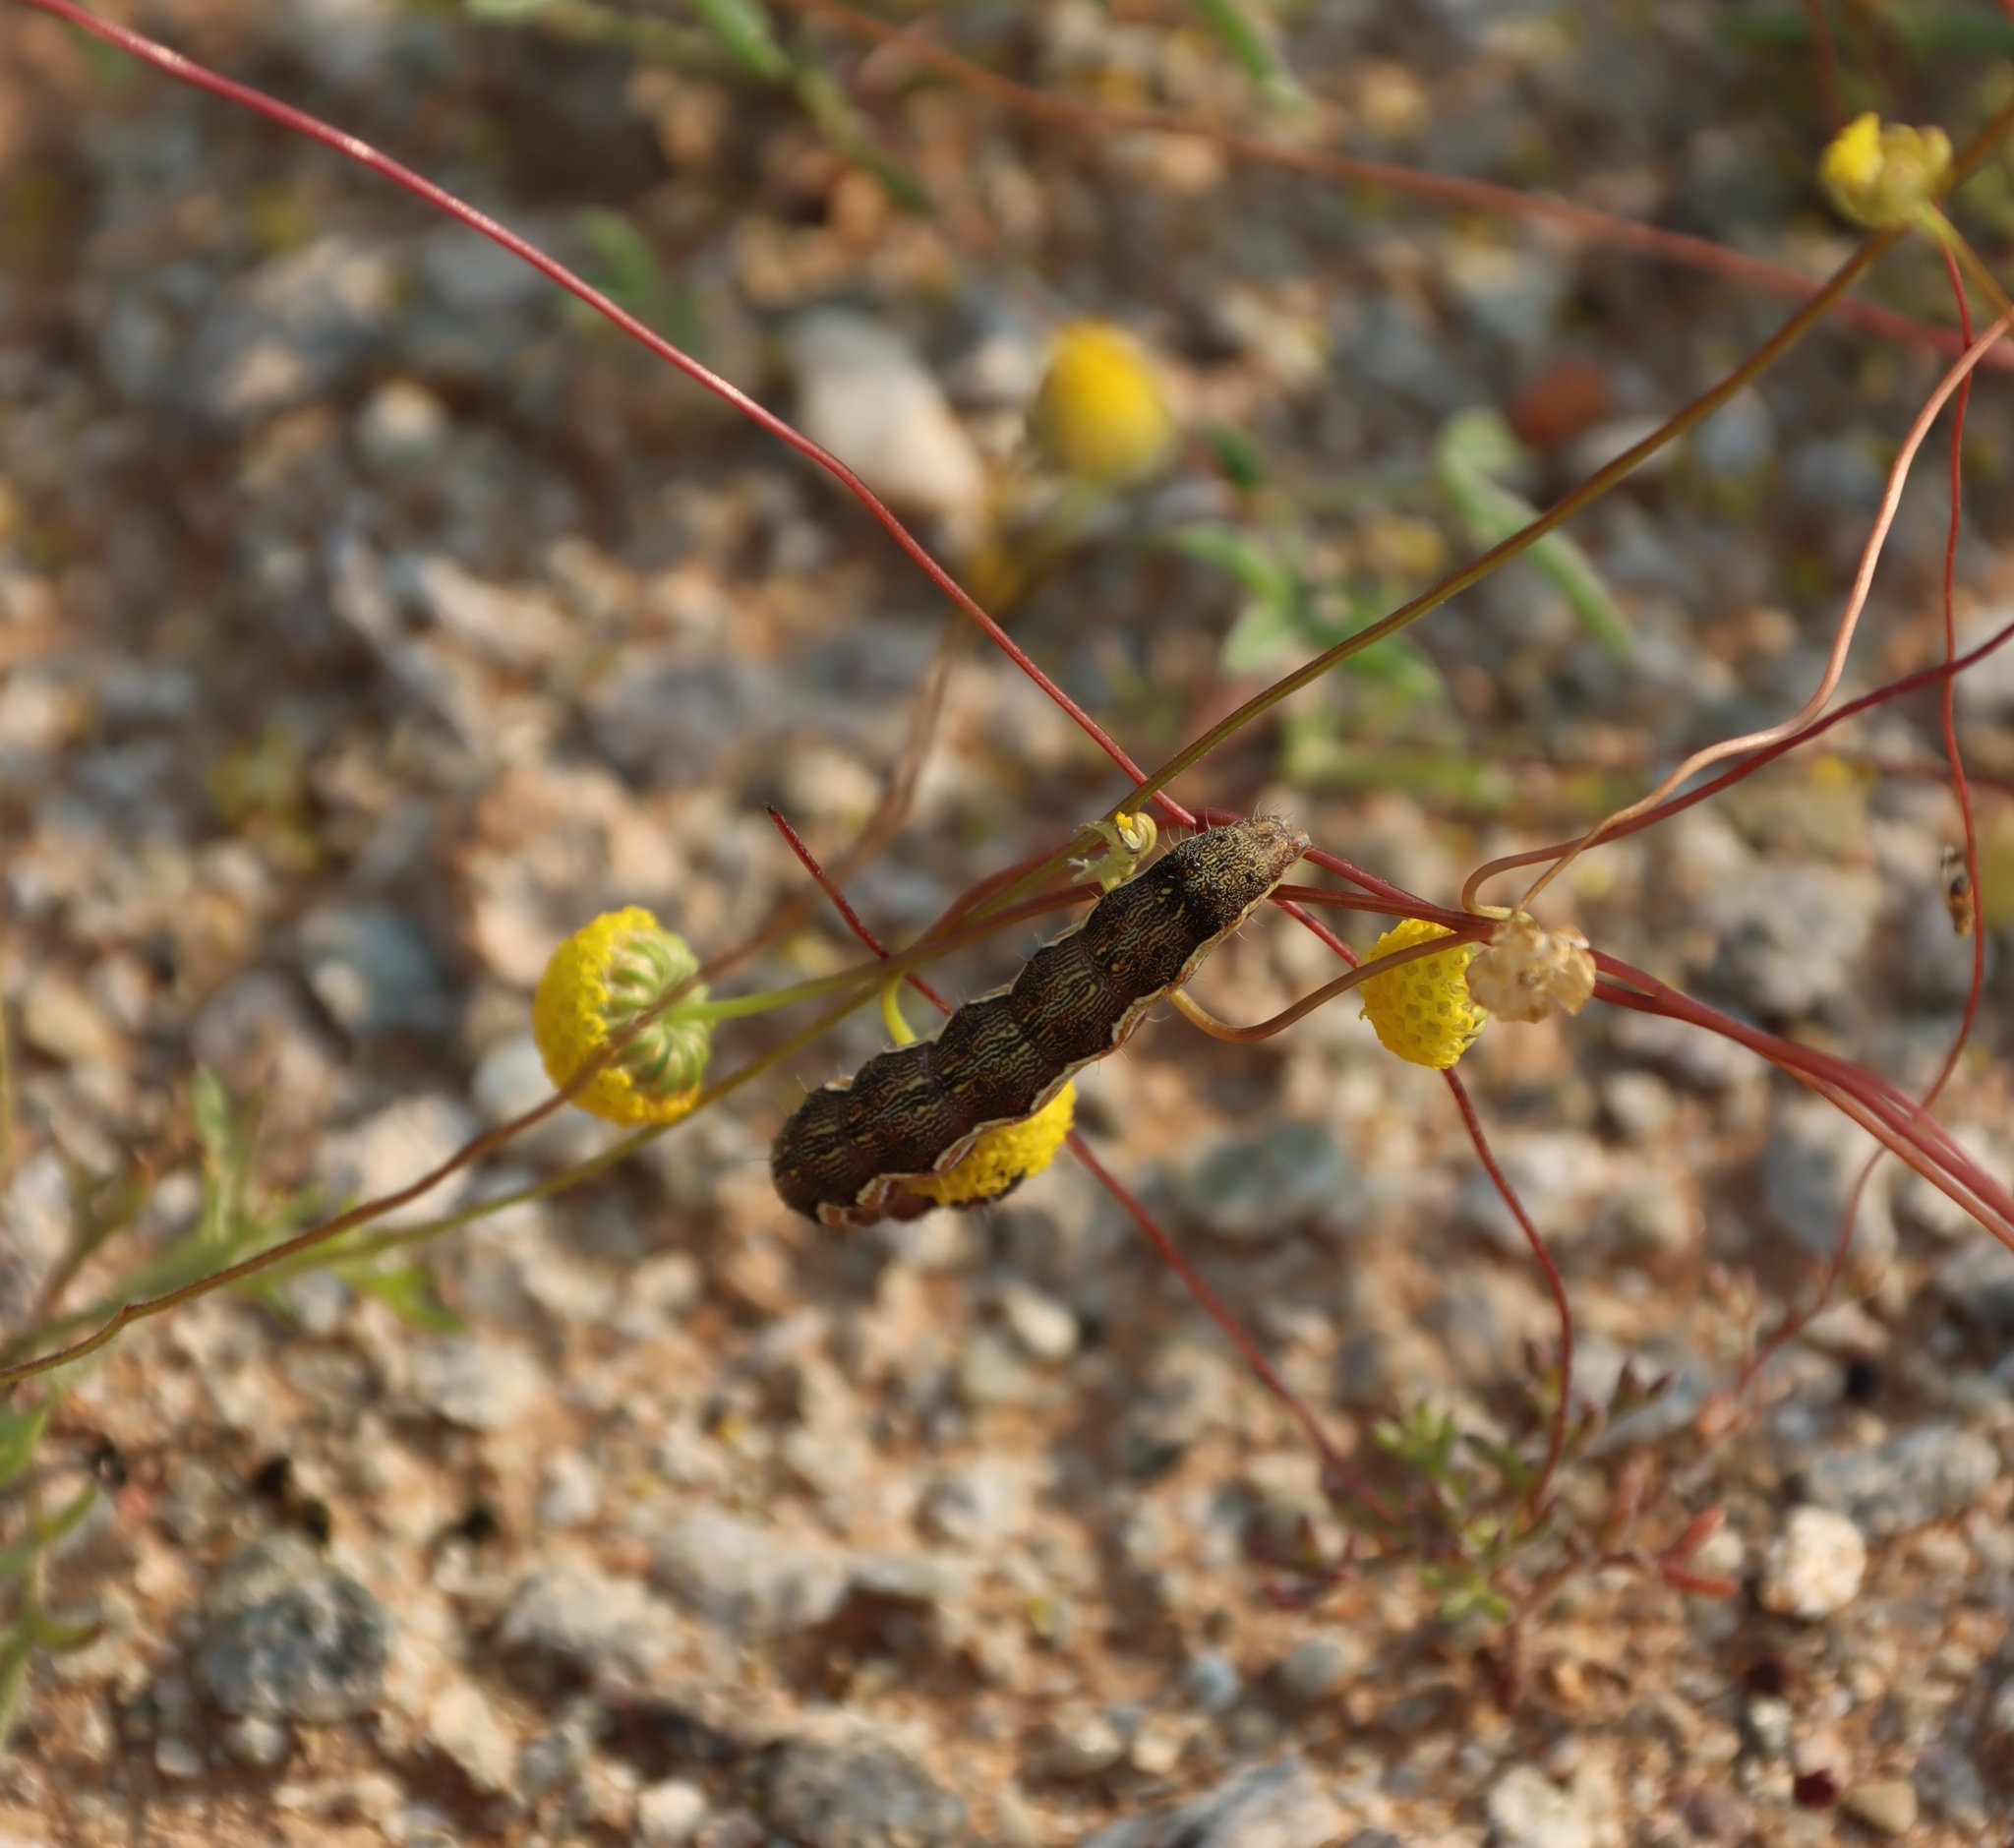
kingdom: Animalia
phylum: Arthropoda
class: Insecta
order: Lepidoptera
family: Noctuidae
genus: Helicoverpa
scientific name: Helicoverpa armigera
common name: Cotton bollworm
